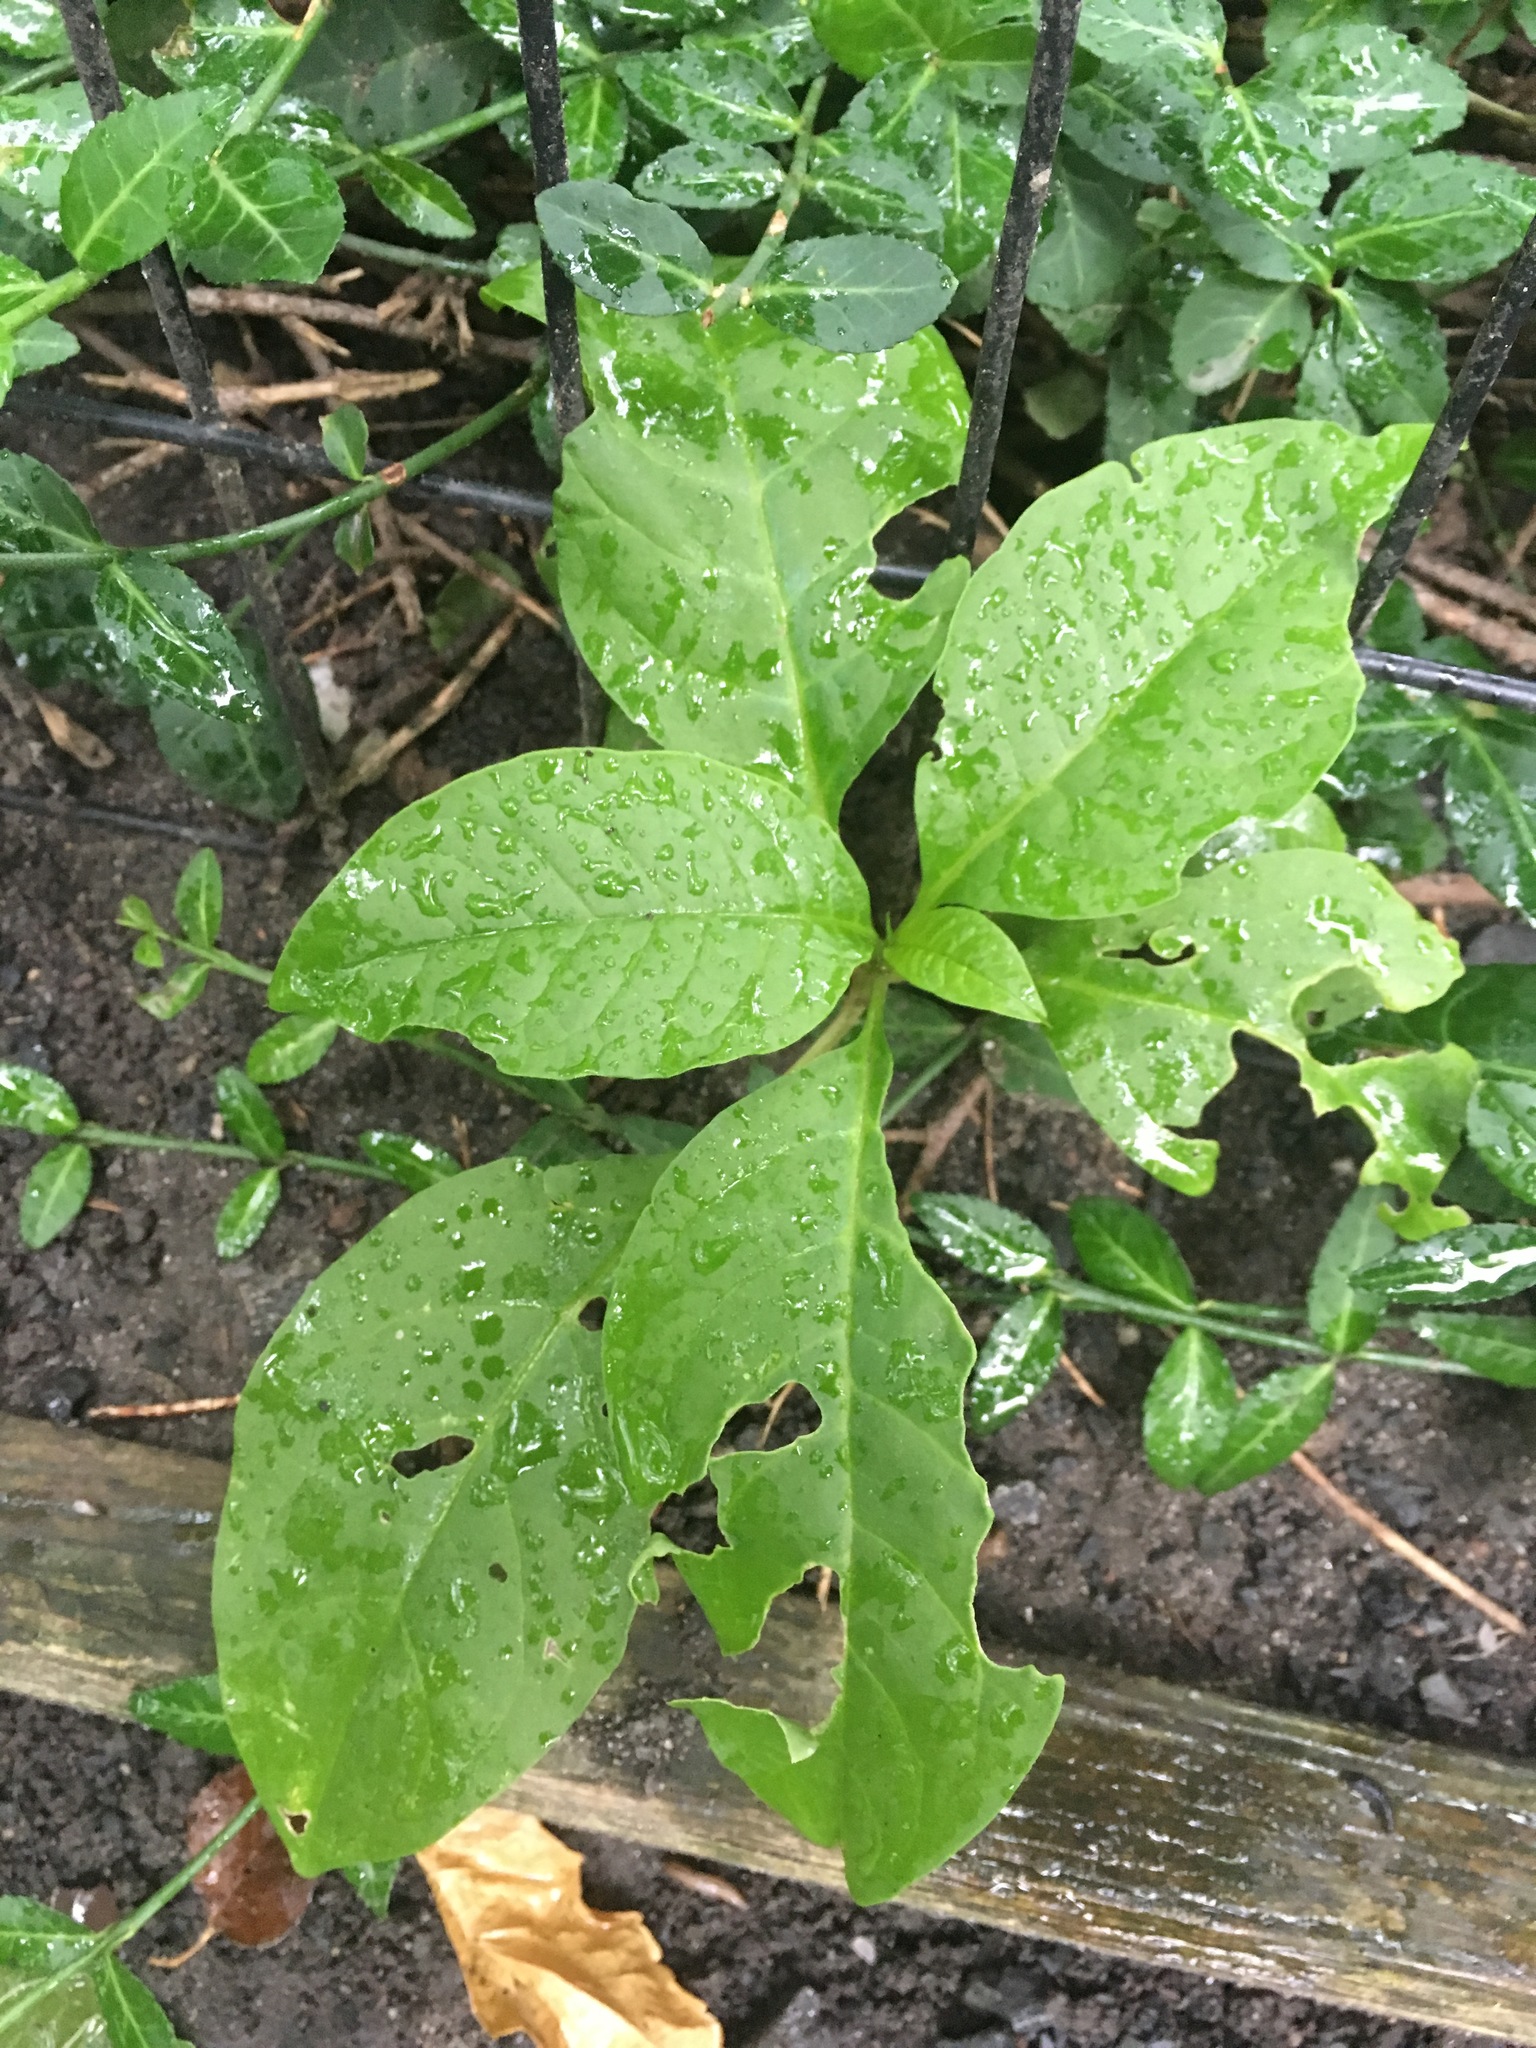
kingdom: Plantae
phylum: Tracheophyta
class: Magnoliopsida
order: Caryophyllales
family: Phytolaccaceae
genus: Phytolacca
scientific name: Phytolacca americana
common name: American pokeweed
